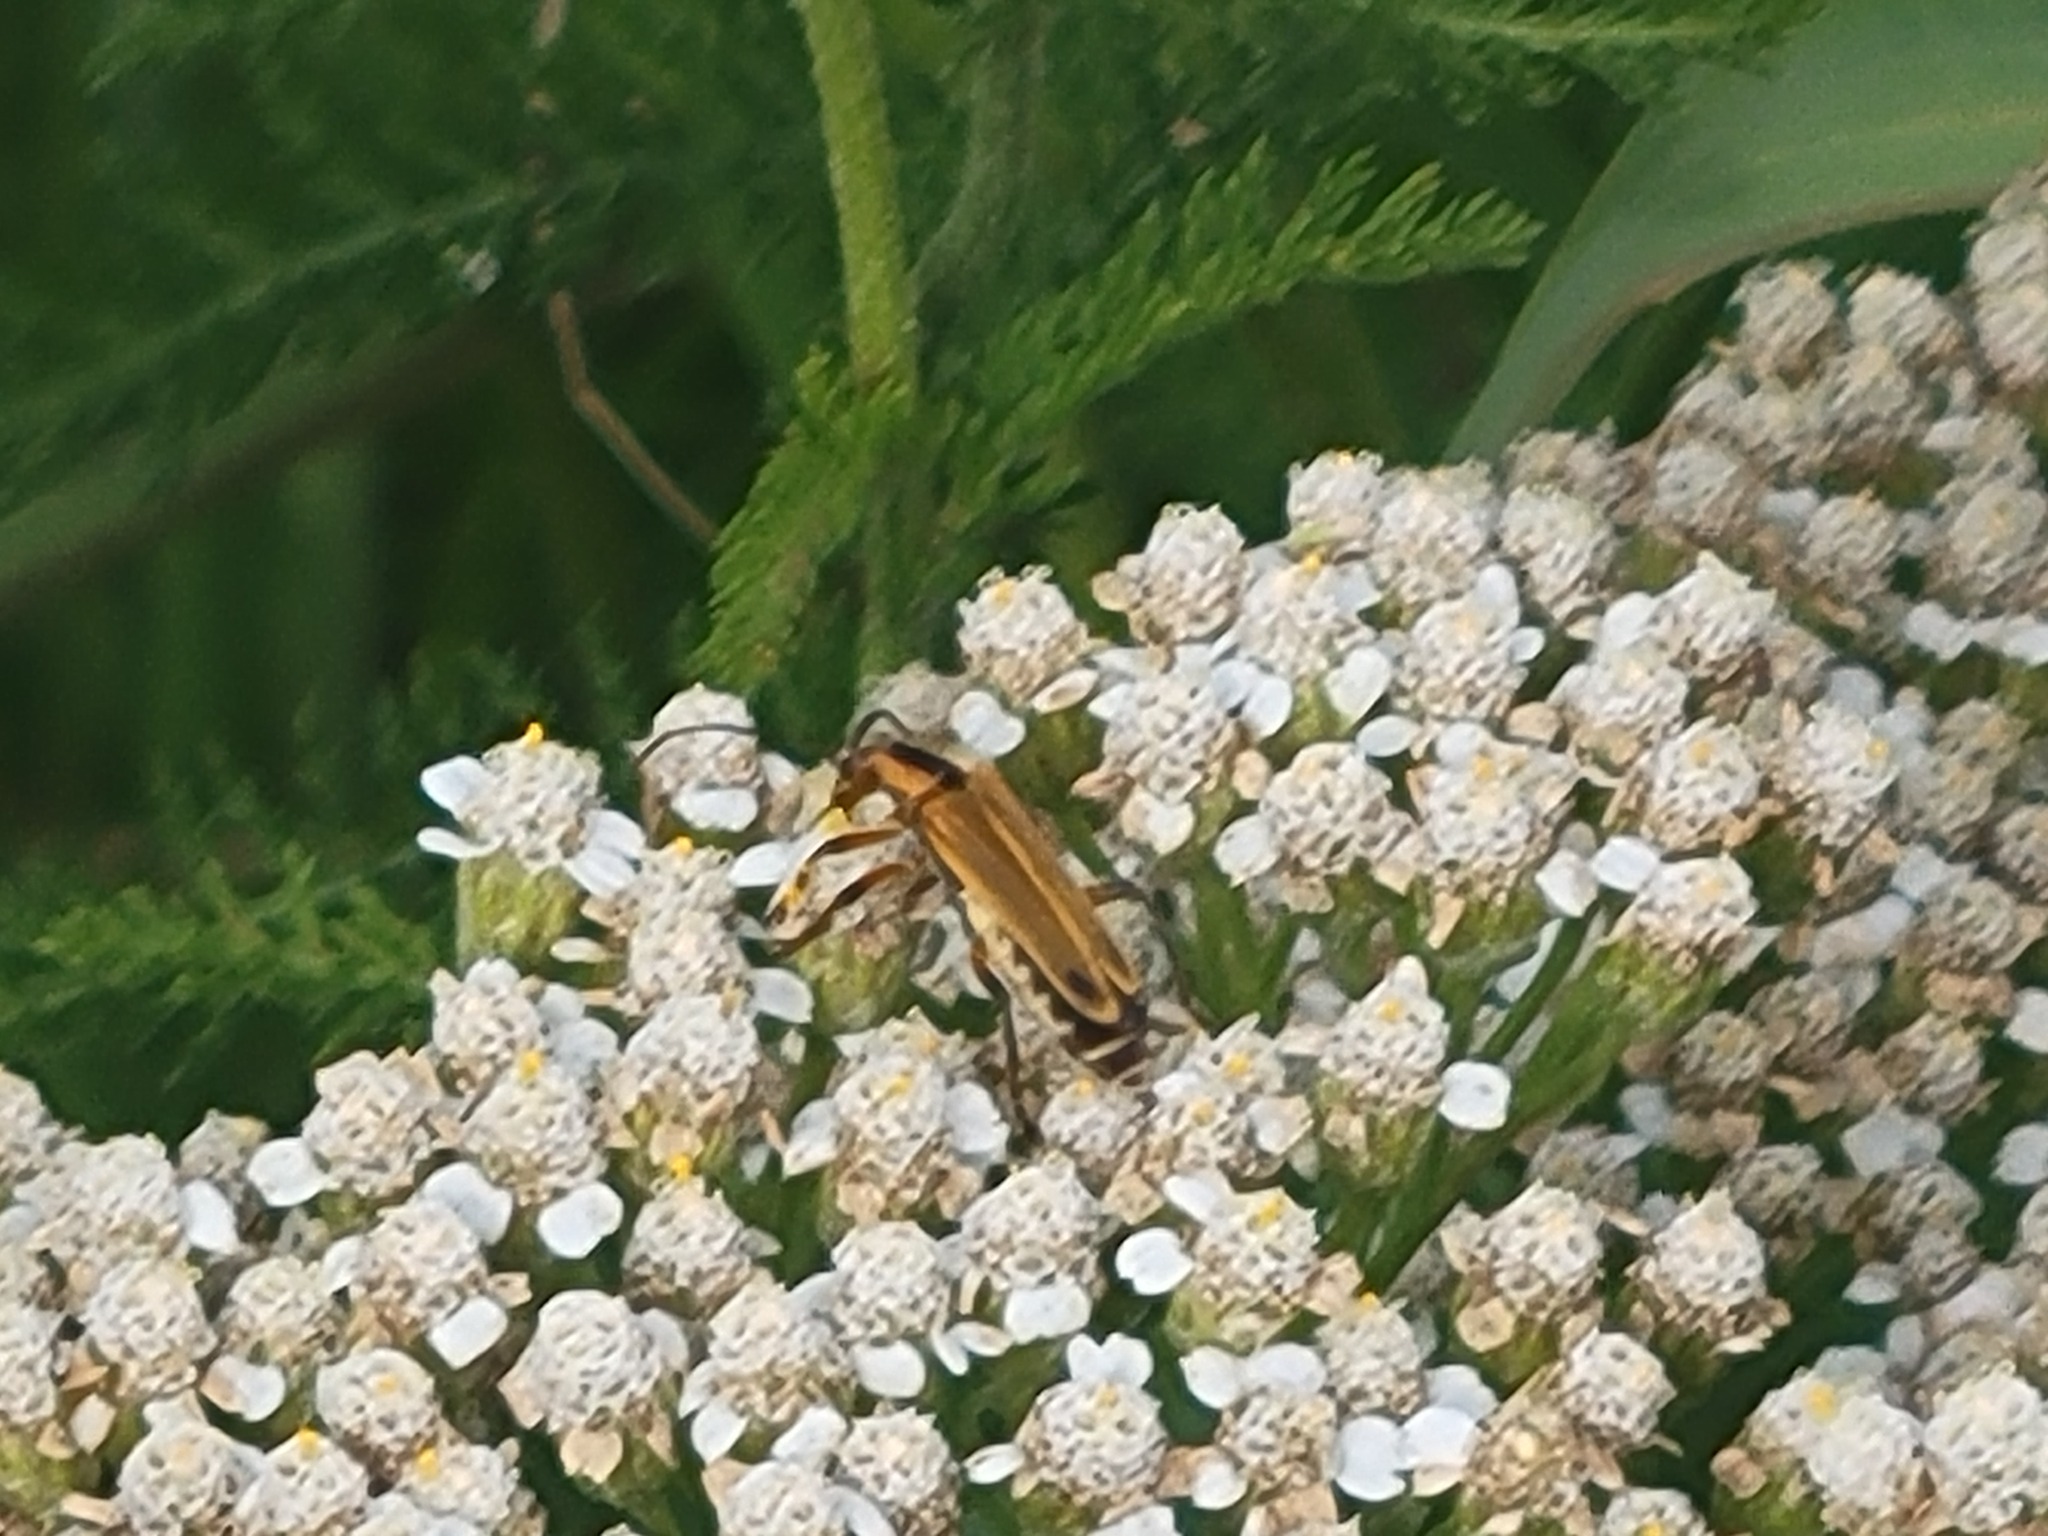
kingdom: Animalia
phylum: Arthropoda
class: Insecta
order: Coleoptera
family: Cantharidae
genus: Chauliognathus
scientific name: Chauliognathus marginatus
